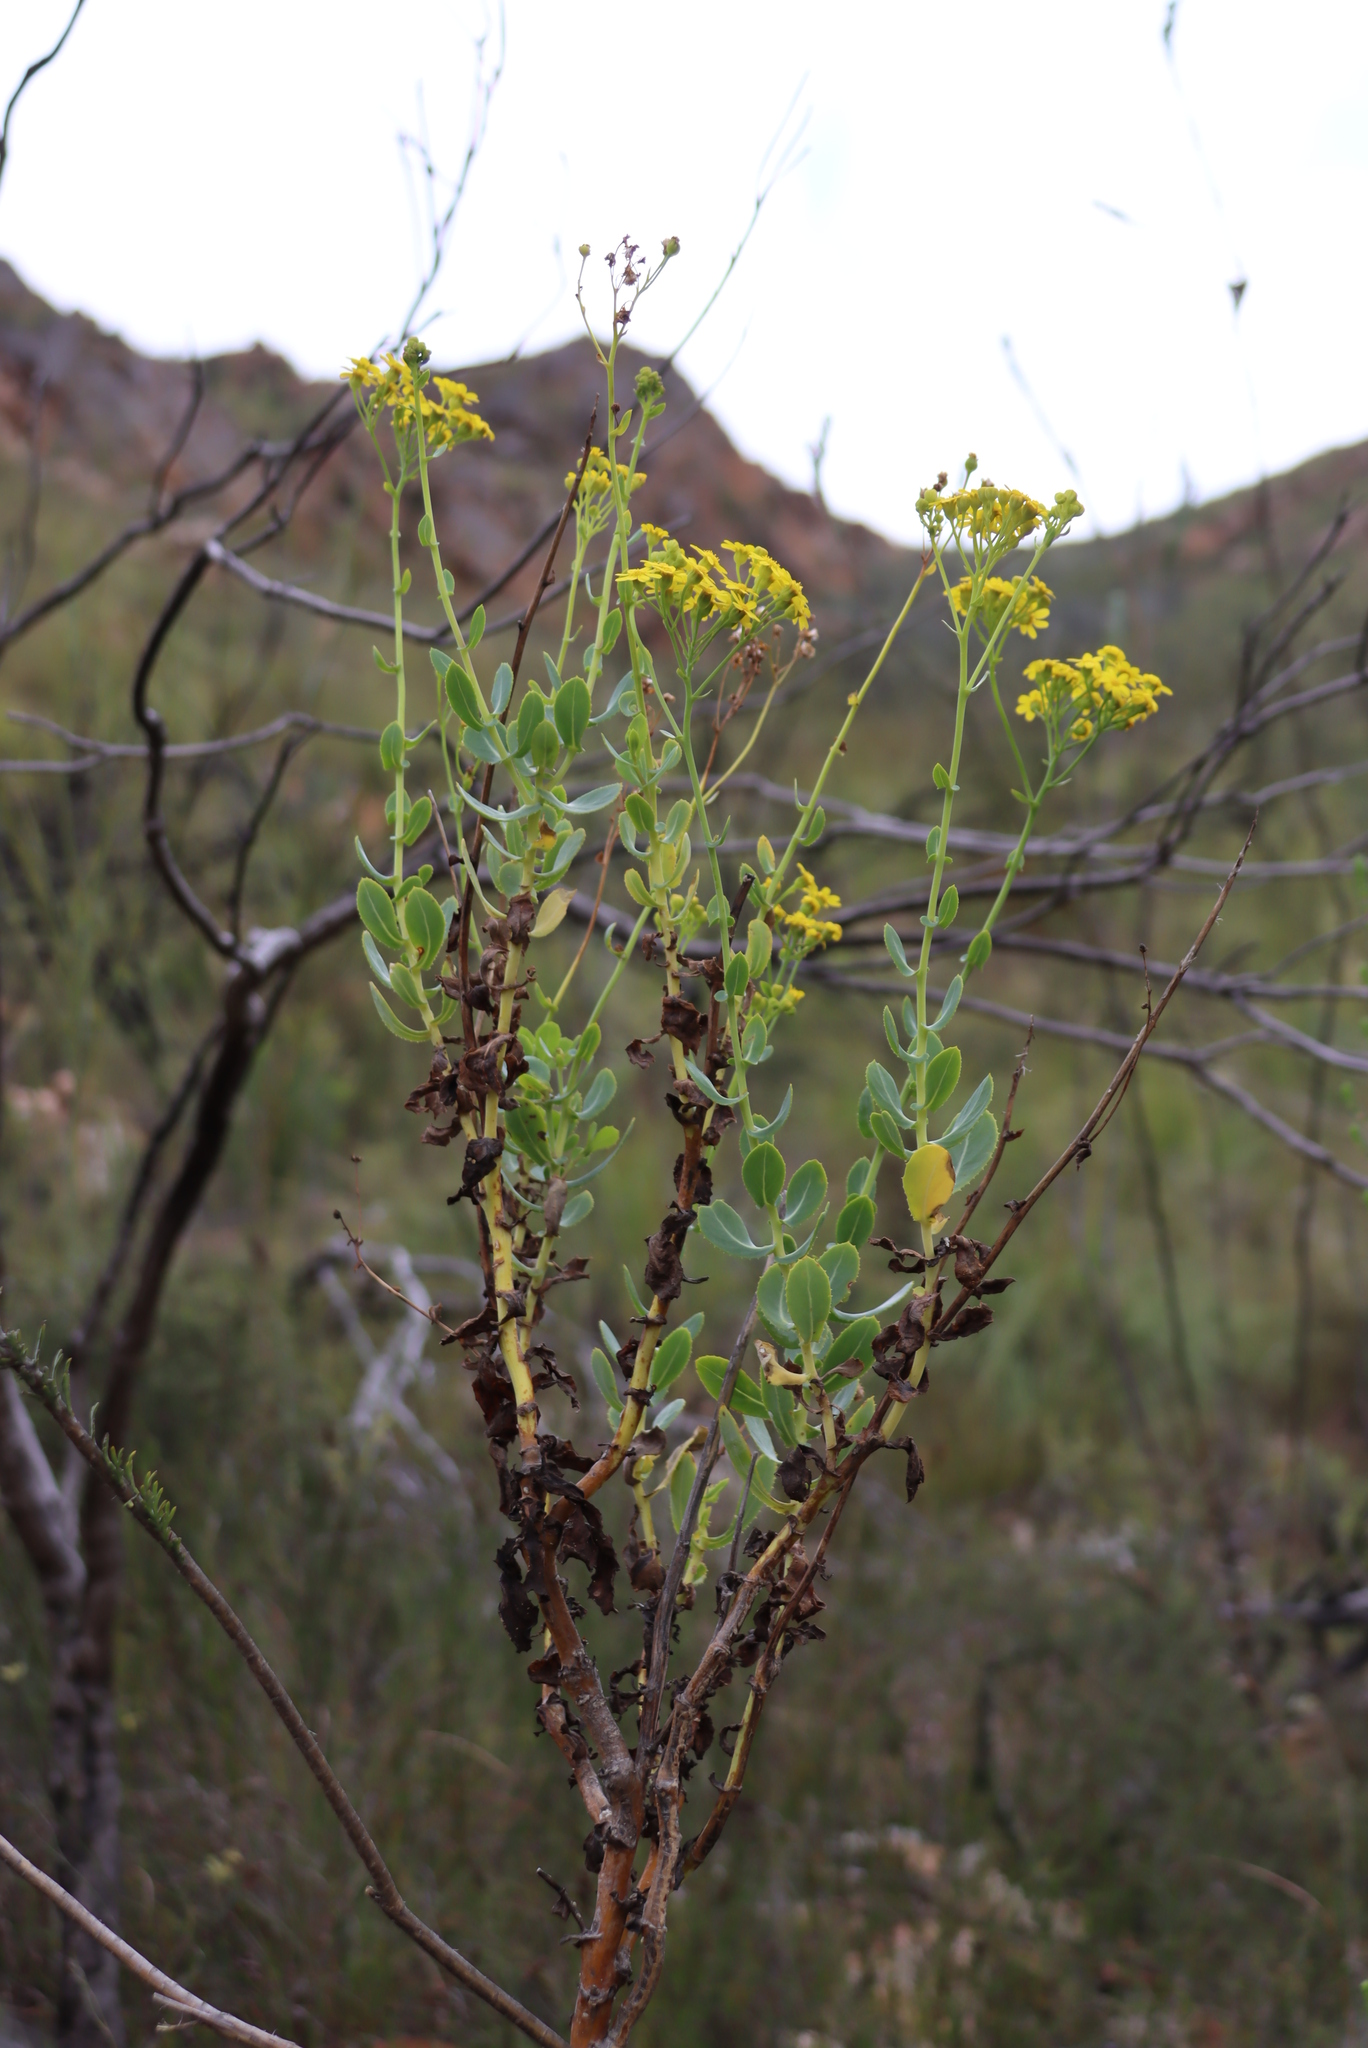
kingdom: Plantae
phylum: Tracheophyta
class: Magnoliopsida
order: Asterales
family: Asteraceae
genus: Othonna
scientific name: Othonna parviflora
